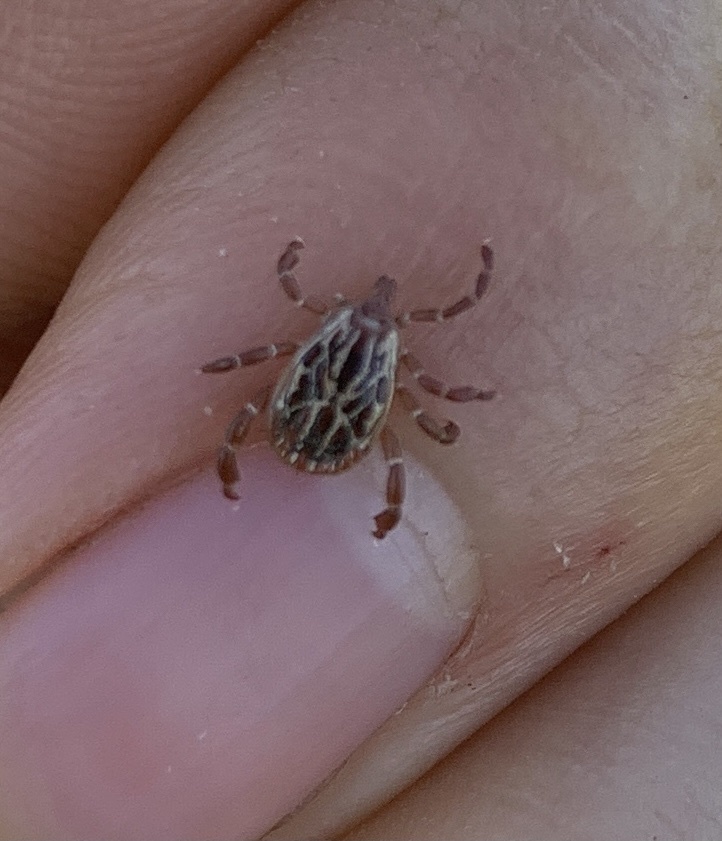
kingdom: Animalia
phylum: Arthropoda
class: Arachnida
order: Ixodida
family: Ixodidae
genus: Amblyomma
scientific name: Amblyomma maculatum
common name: Gulf coast tick
